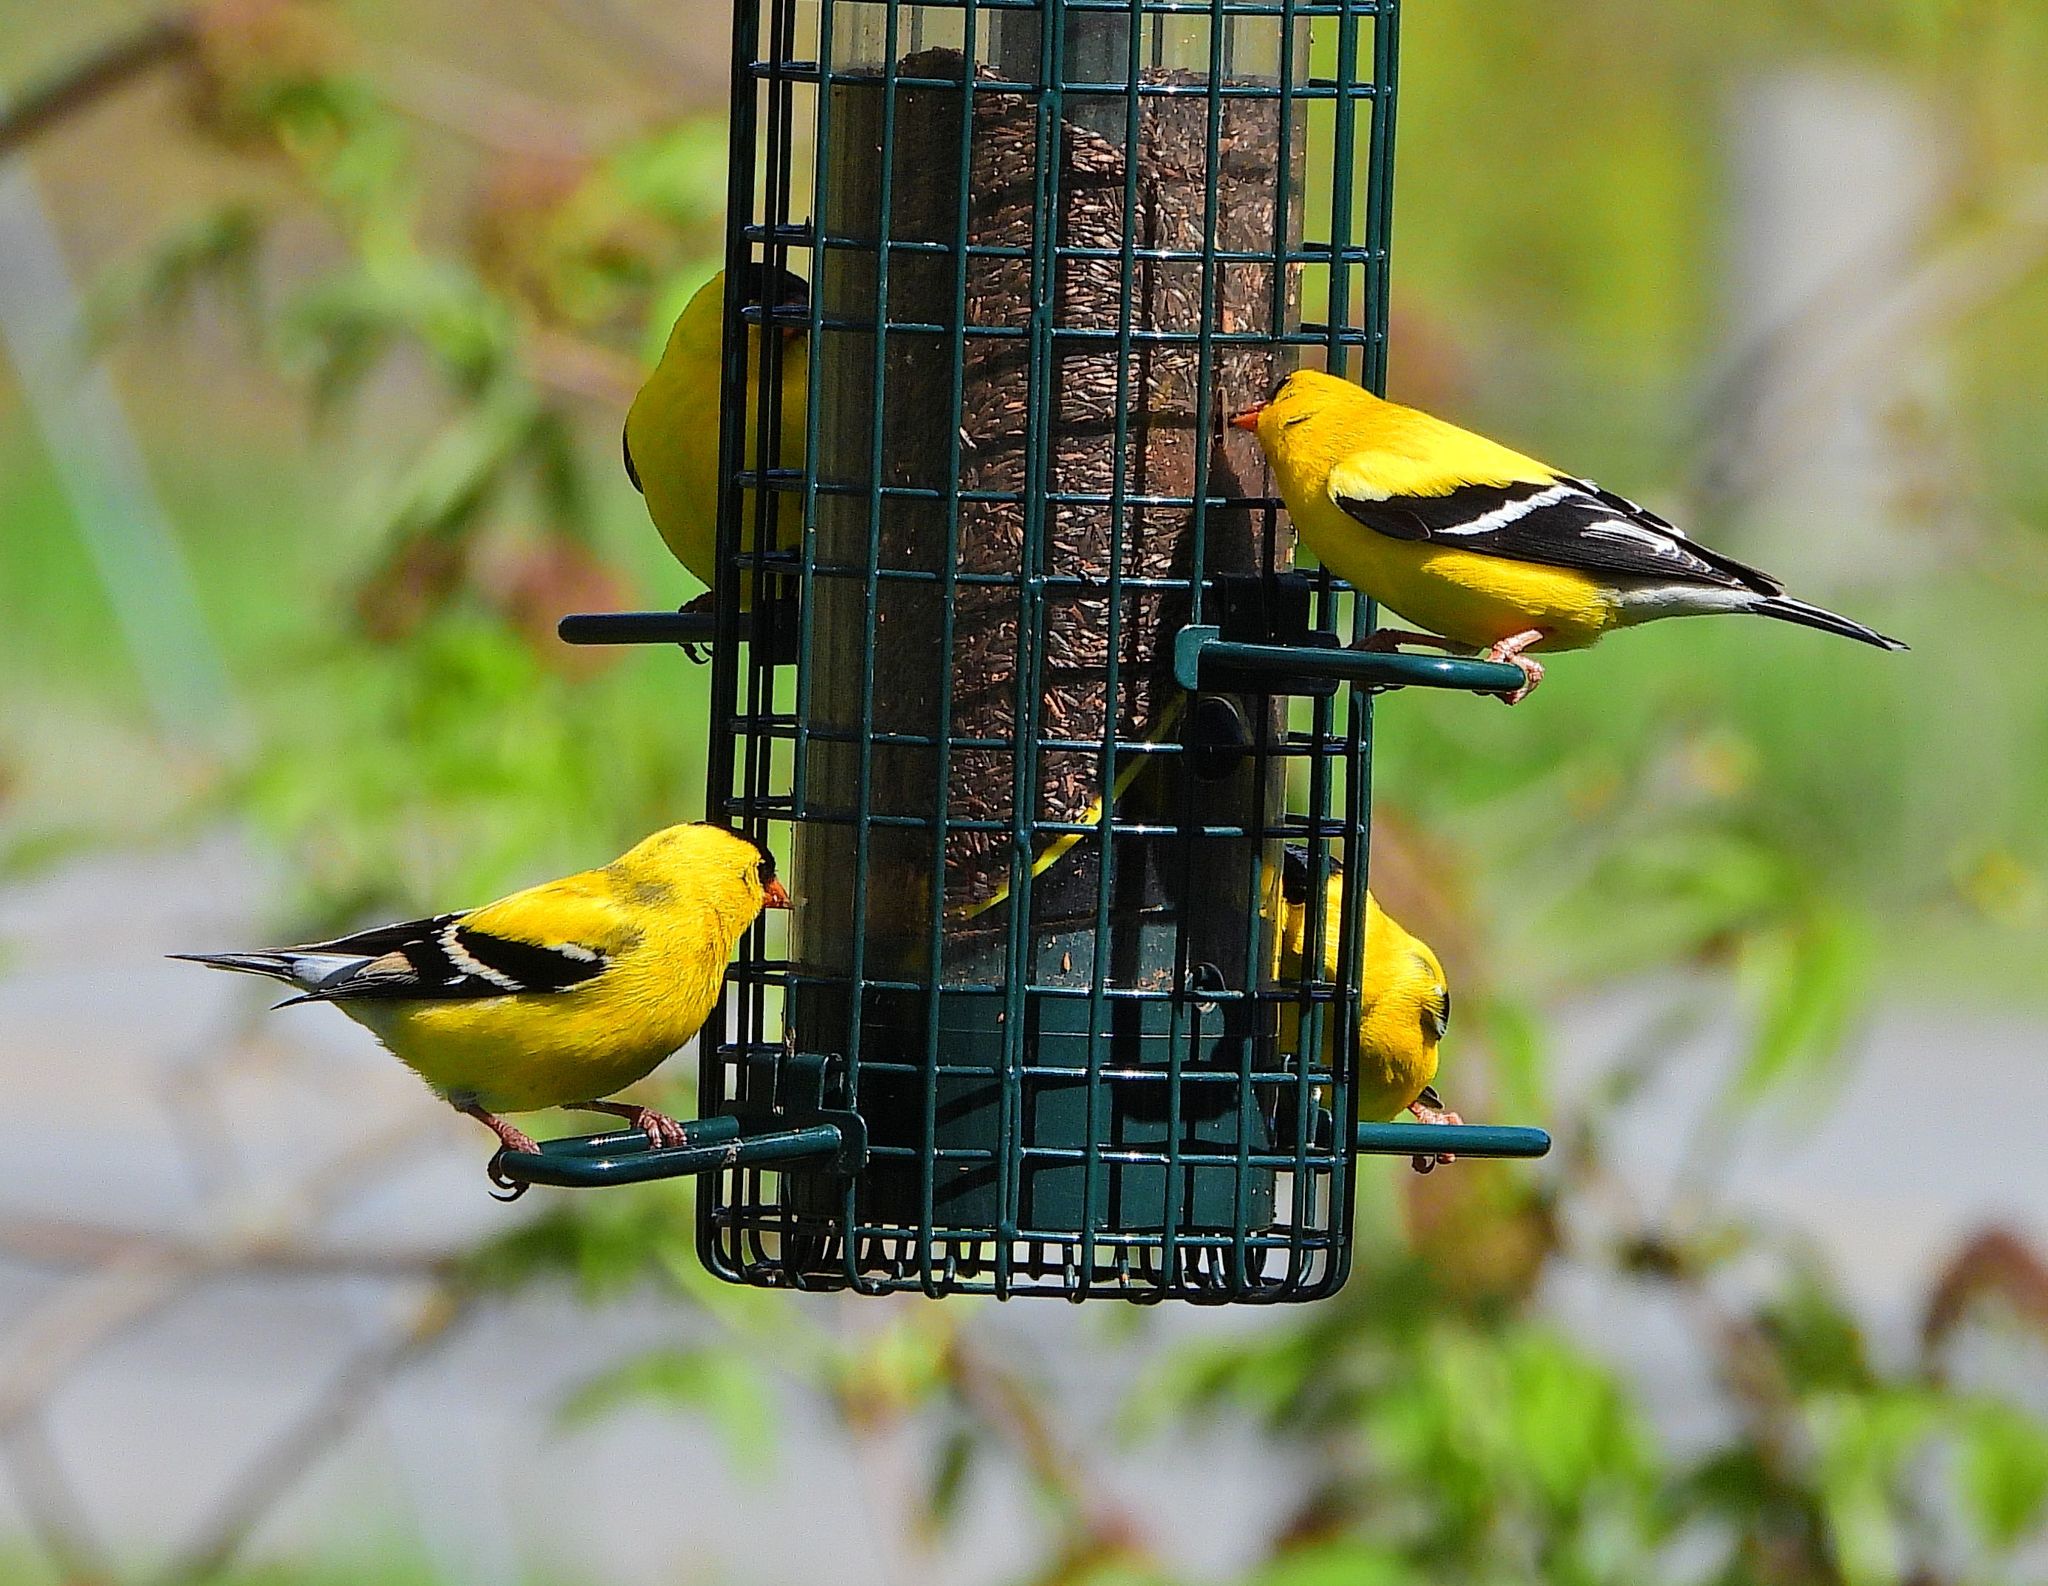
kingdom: Animalia
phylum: Chordata
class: Aves
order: Passeriformes
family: Fringillidae
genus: Spinus
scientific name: Spinus tristis
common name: American goldfinch
